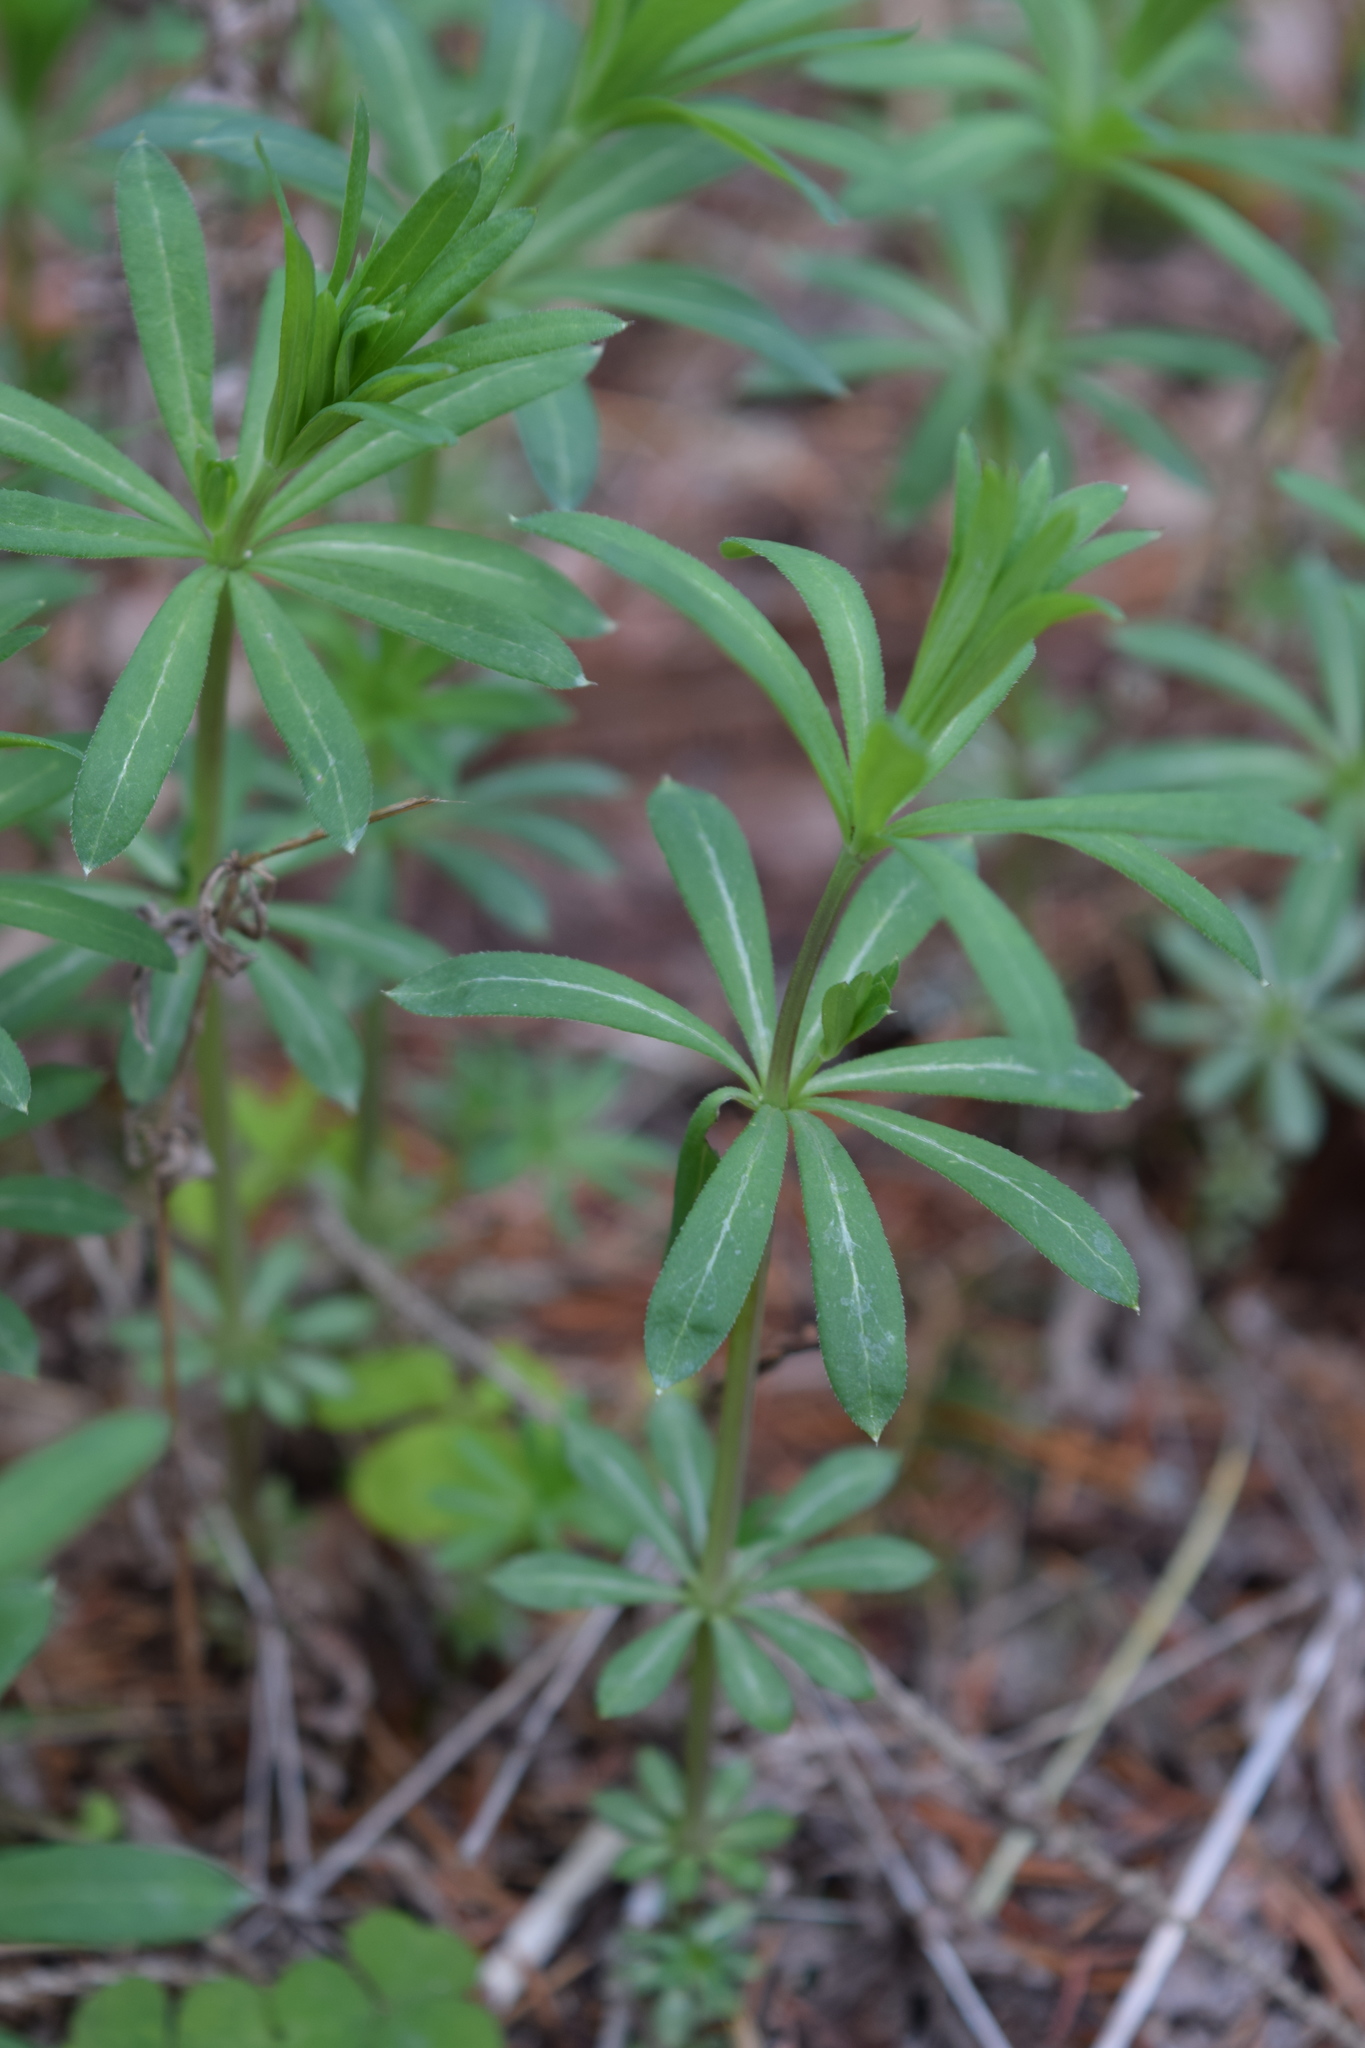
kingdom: Plantae
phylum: Tracheophyta
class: Magnoliopsida
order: Gentianales
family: Rubiaceae
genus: Galium
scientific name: Galium intermedium
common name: Bedstraw
